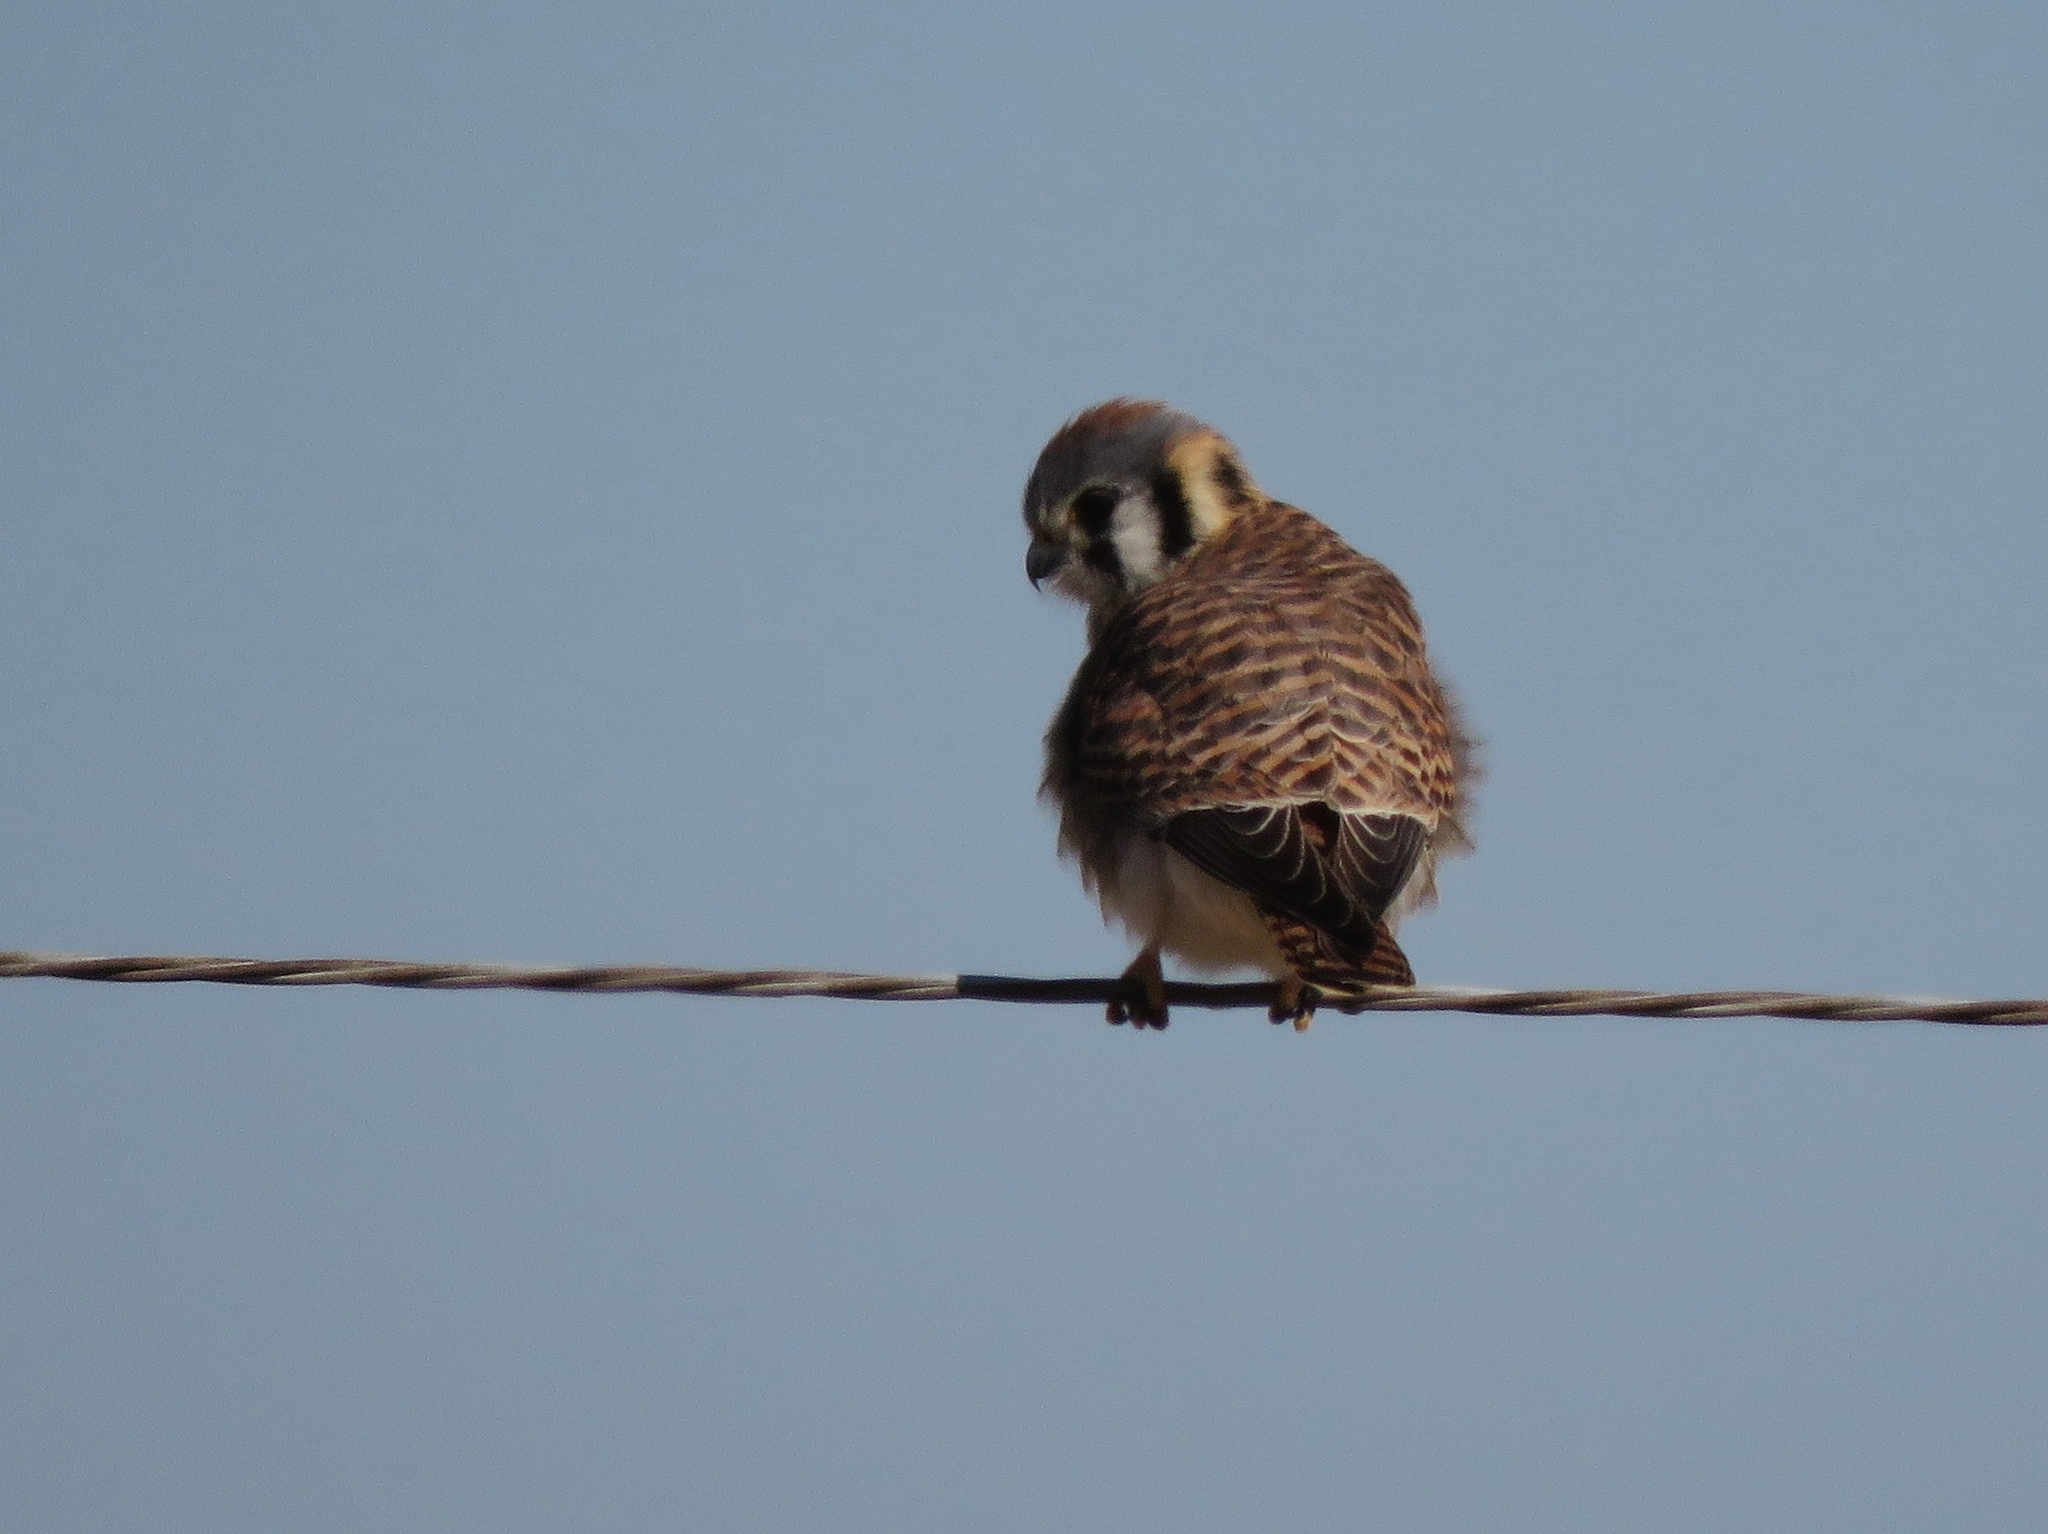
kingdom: Animalia
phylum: Chordata
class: Aves
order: Falconiformes
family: Falconidae
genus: Falco
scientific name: Falco sparverius
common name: American kestrel
